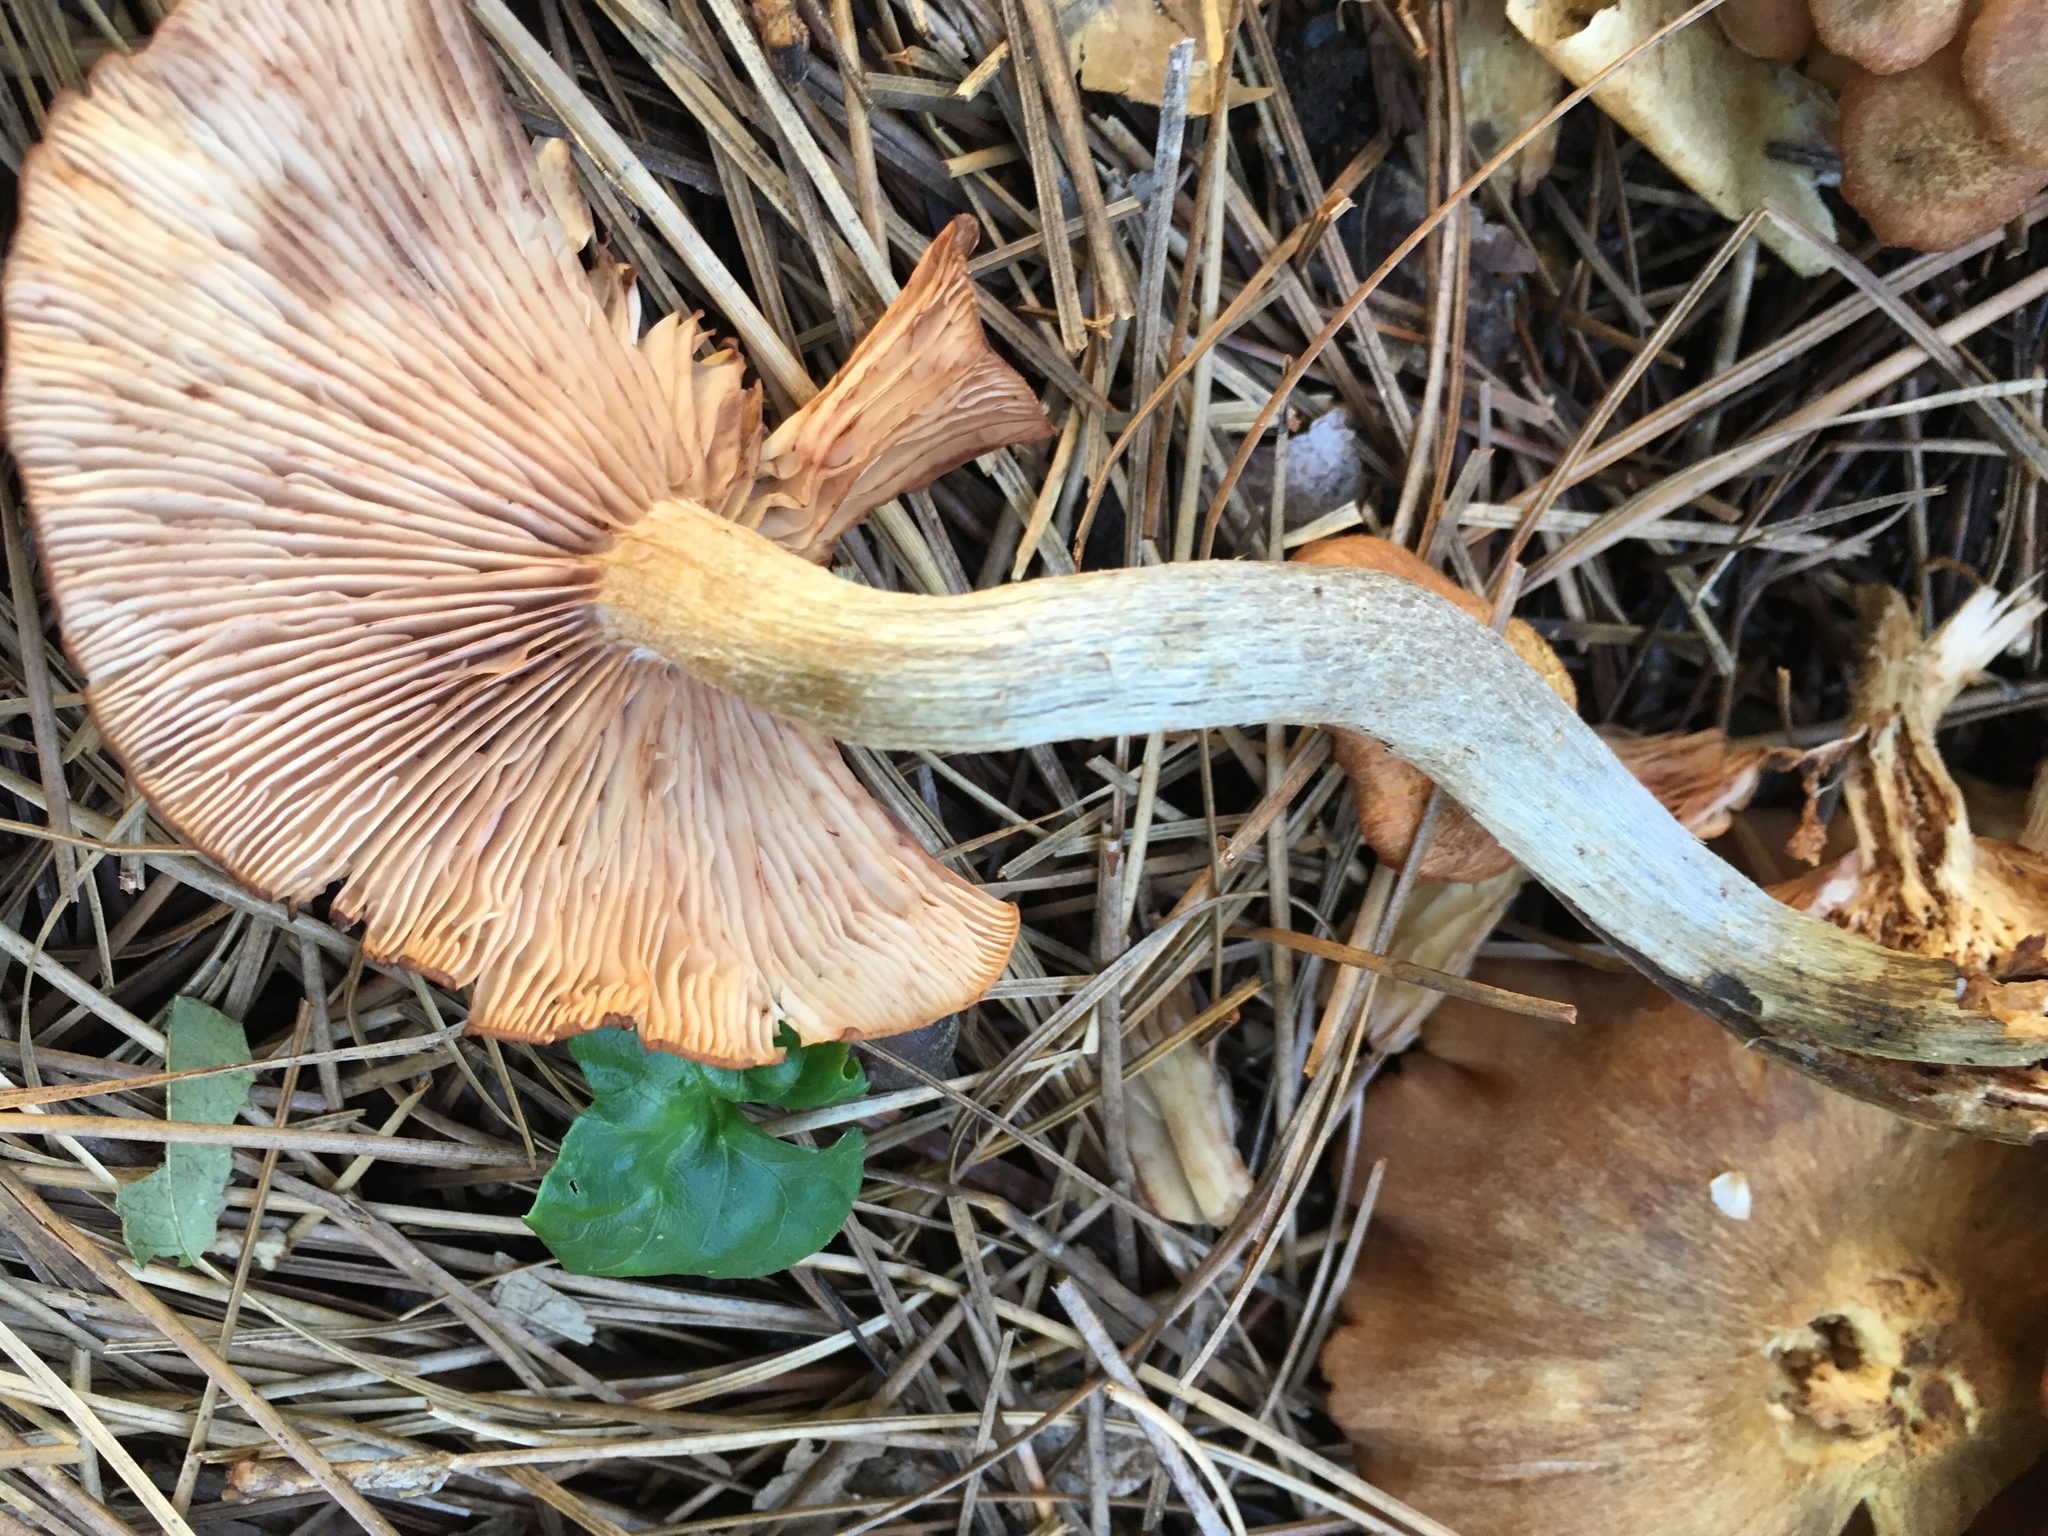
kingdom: Fungi
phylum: Basidiomycota
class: Agaricomycetes
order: Agaricales
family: Physalacriaceae
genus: Desarmillaria
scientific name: Desarmillaria caespitosa
